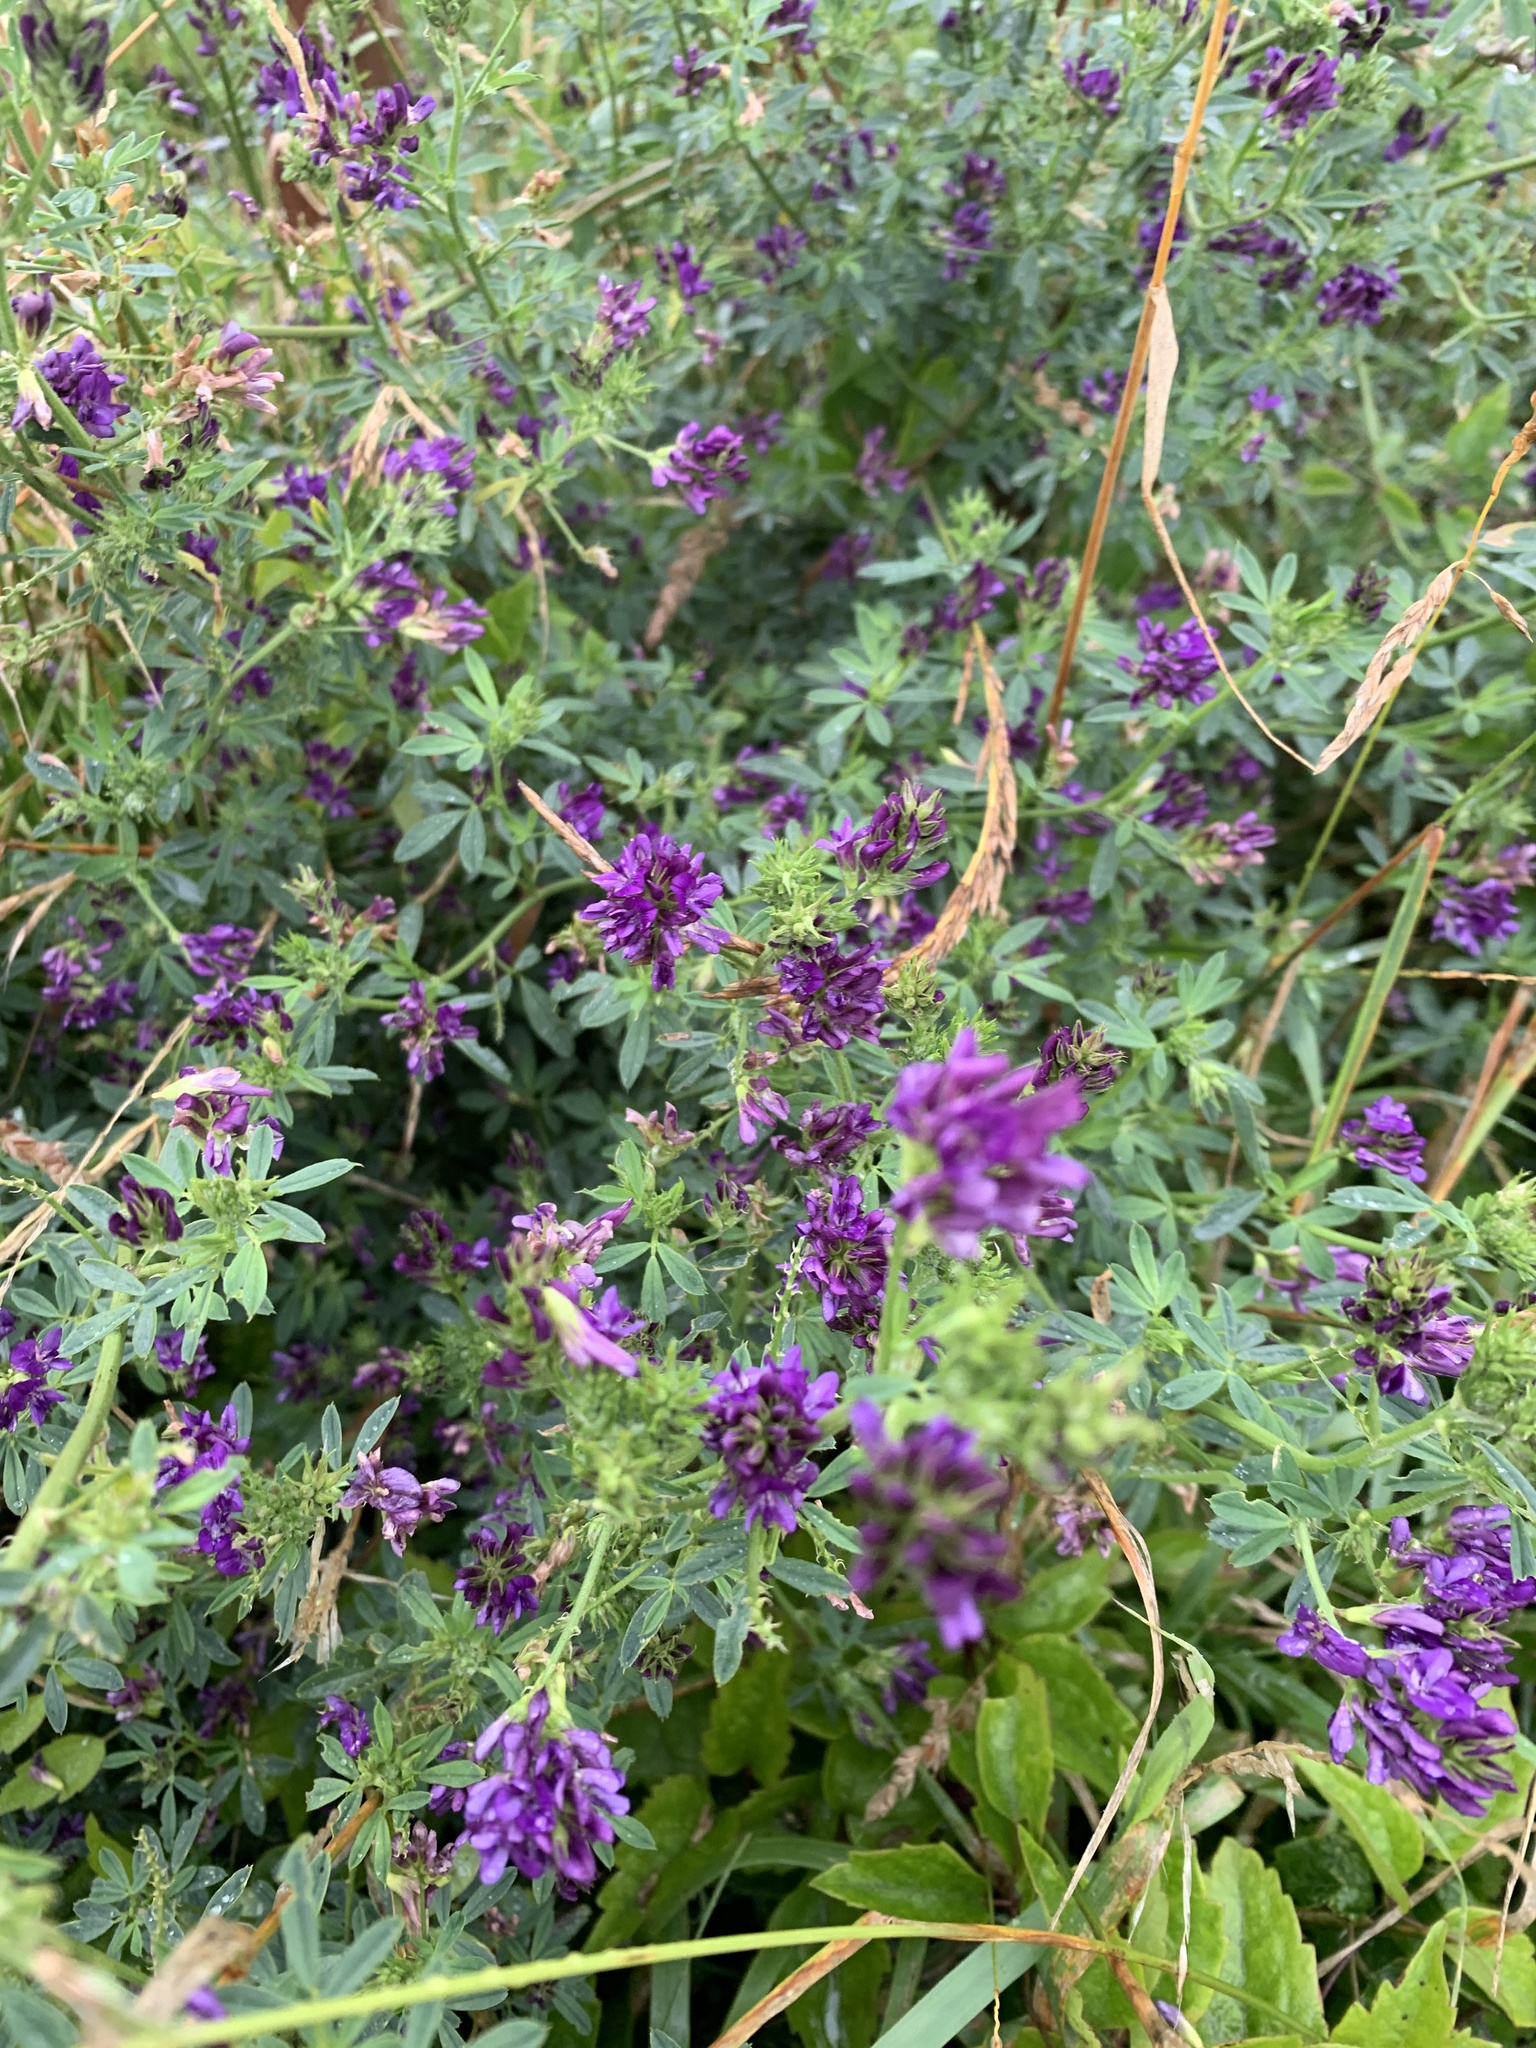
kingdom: Plantae
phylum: Tracheophyta
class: Magnoliopsida
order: Fabales
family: Fabaceae
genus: Medicago
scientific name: Medicago sativa
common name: Alfalfa
